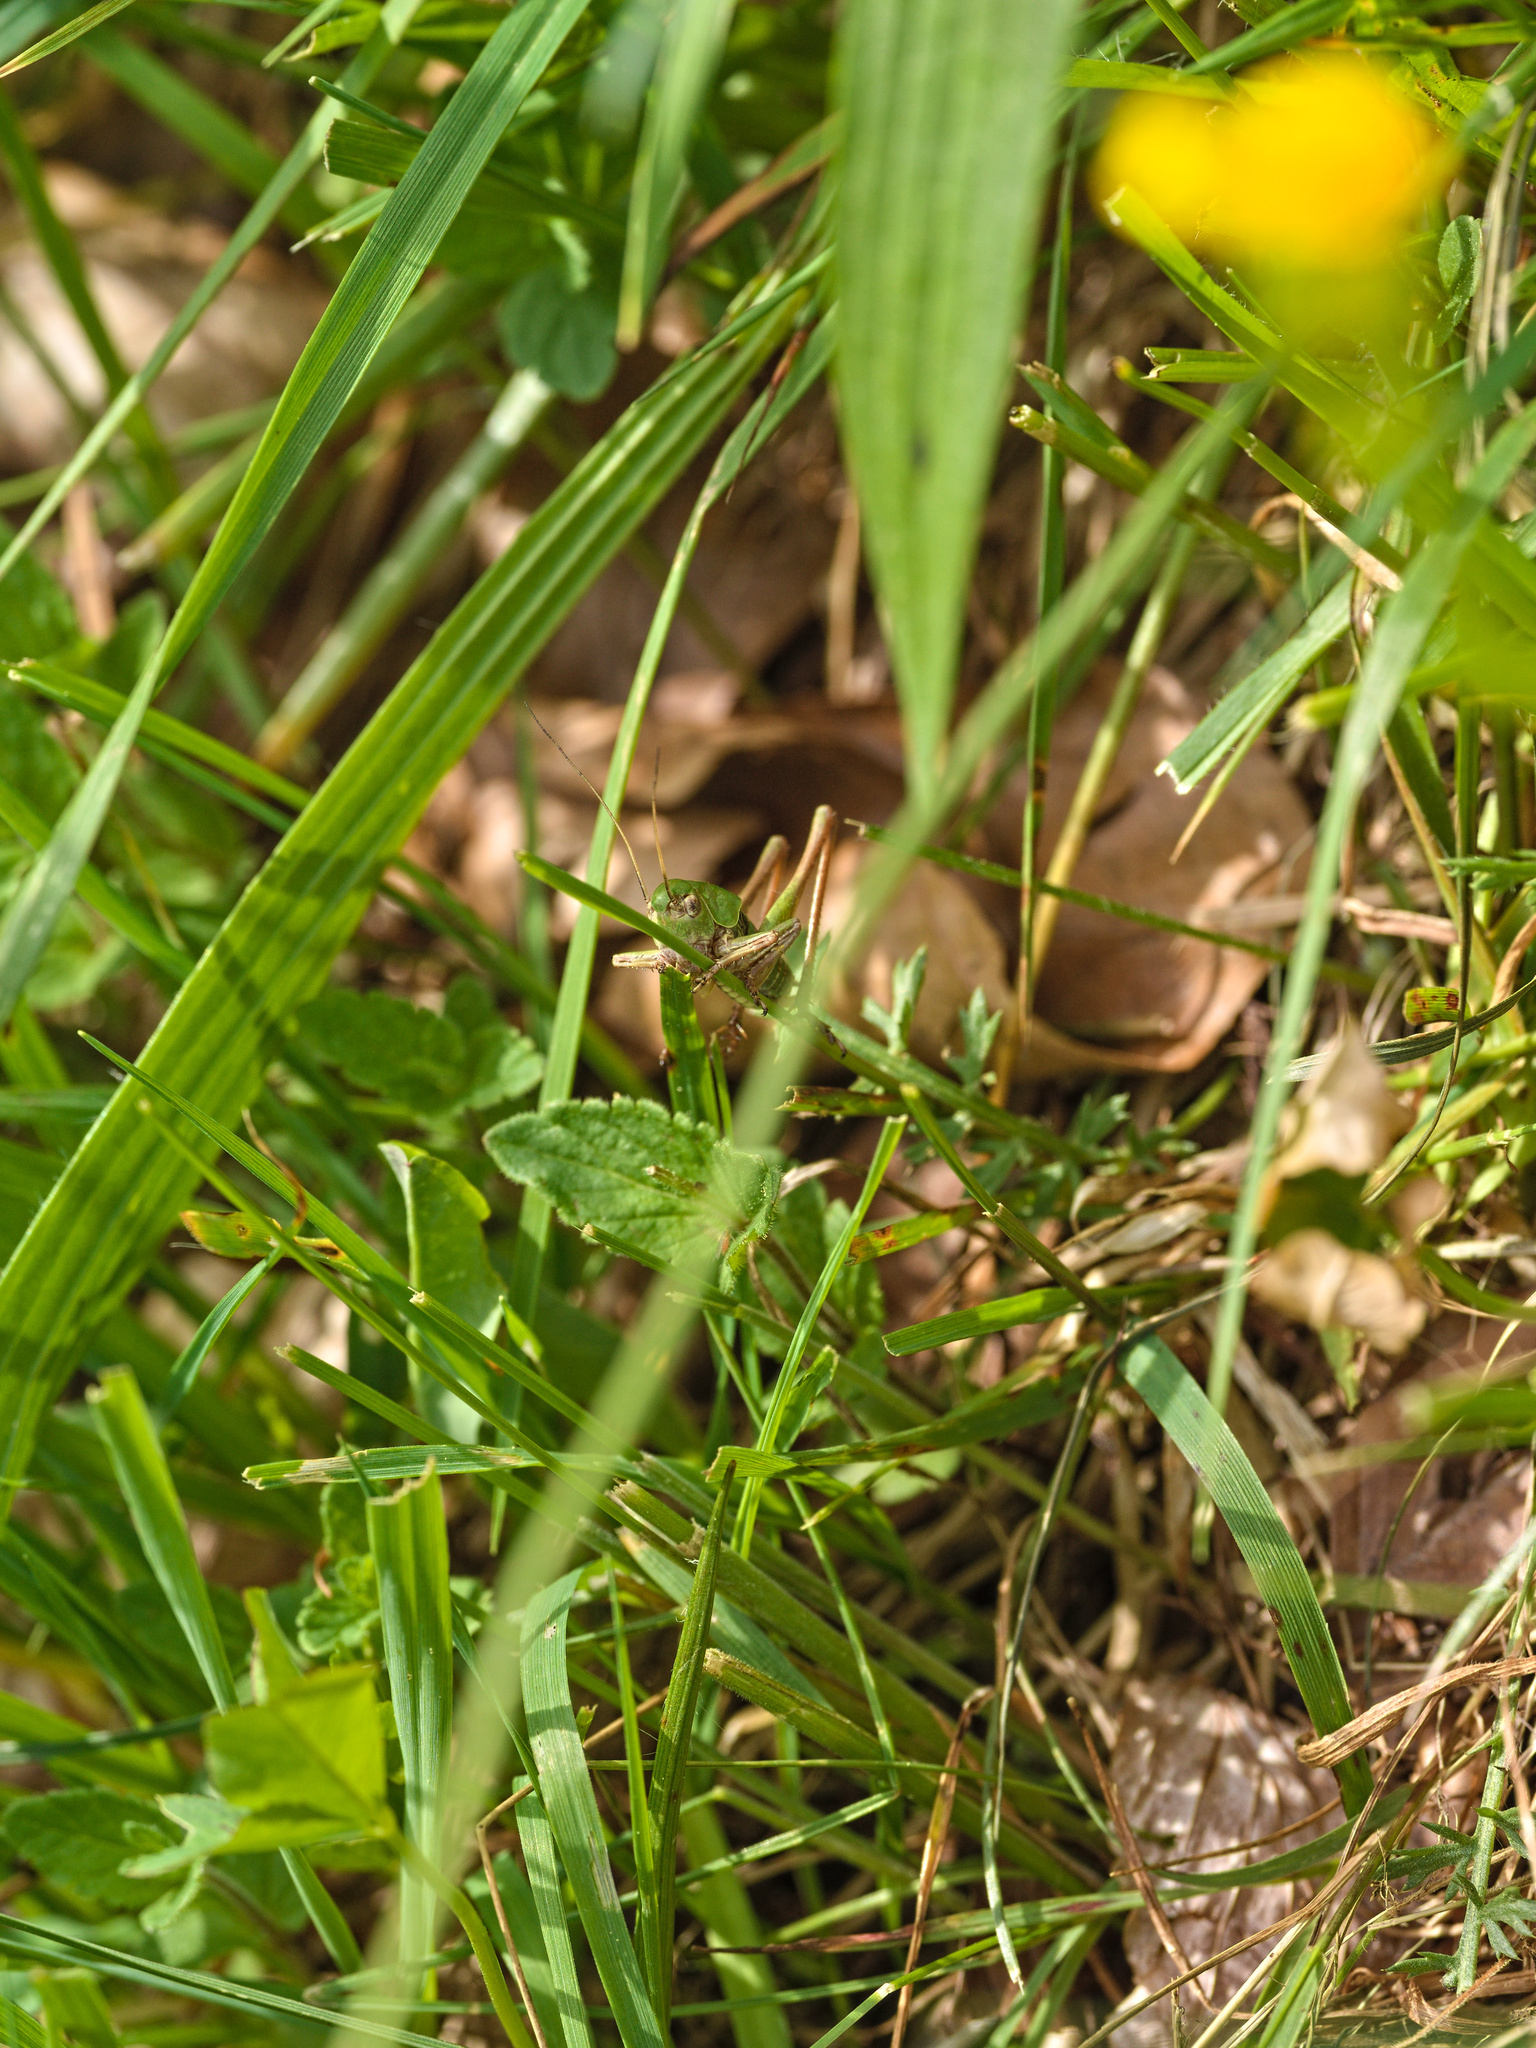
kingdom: Animalia
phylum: Arthropoda
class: Insecta
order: Orthoptera
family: Tettigoniidae
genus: Decticus
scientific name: Decticus verrucivorus
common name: Wart-biter
